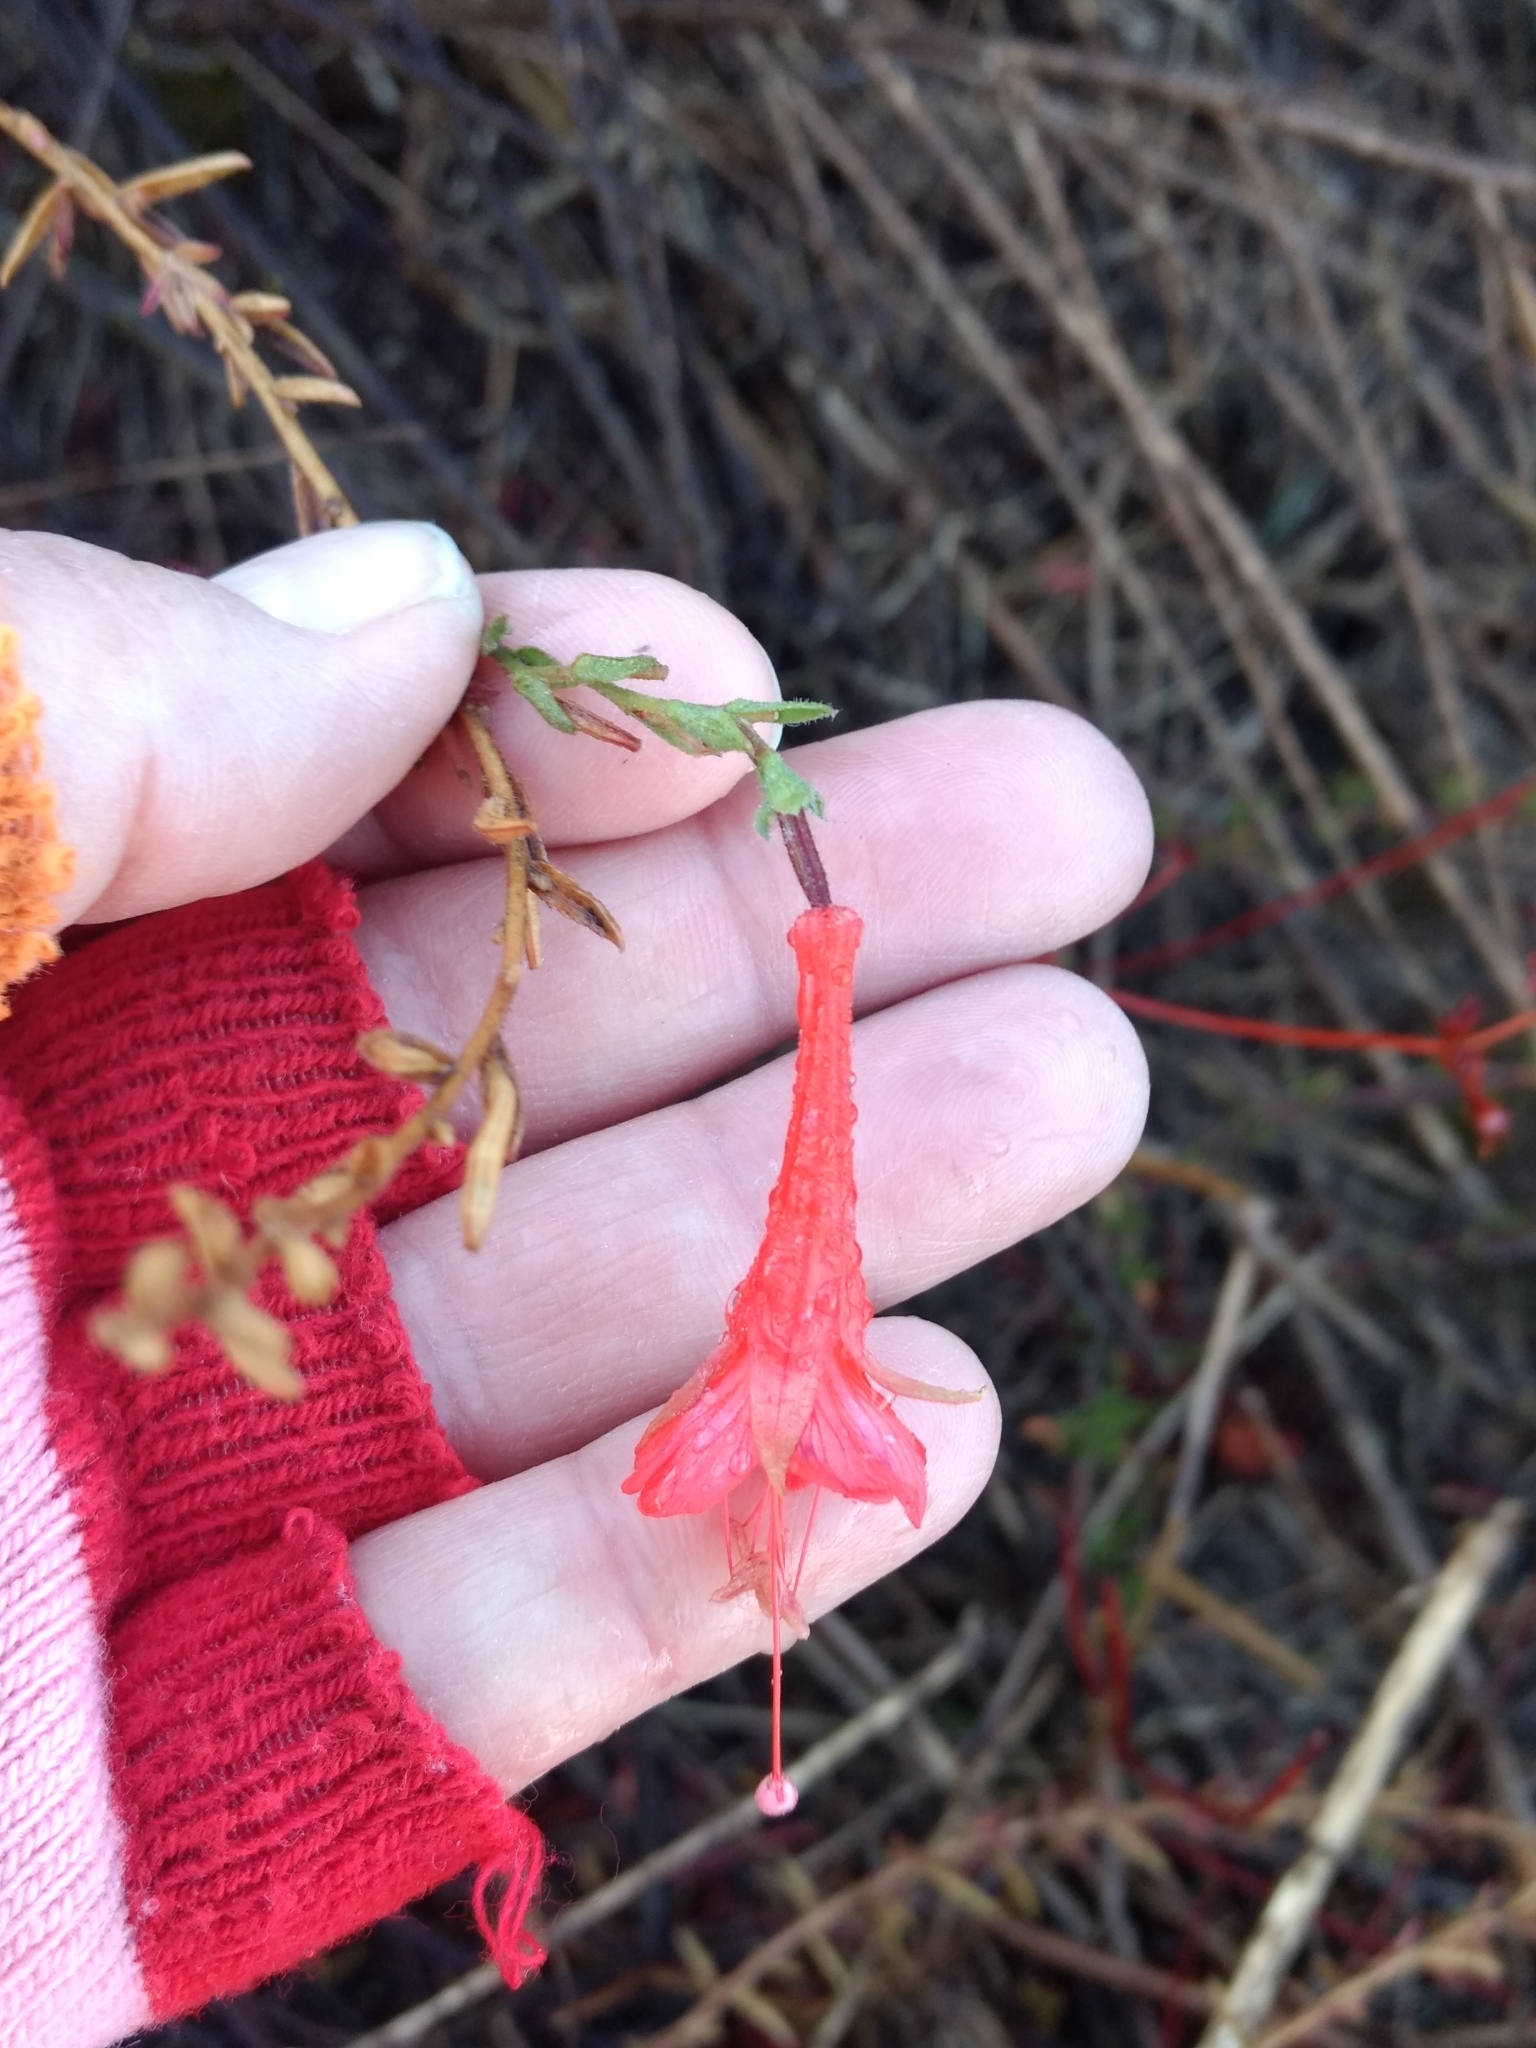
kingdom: Plantae
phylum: Tracheophyta
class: Magnoliopsida
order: Myrtales
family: Onagraceae
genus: Epilobium
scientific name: Epilobium canum
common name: California-fuchsia
